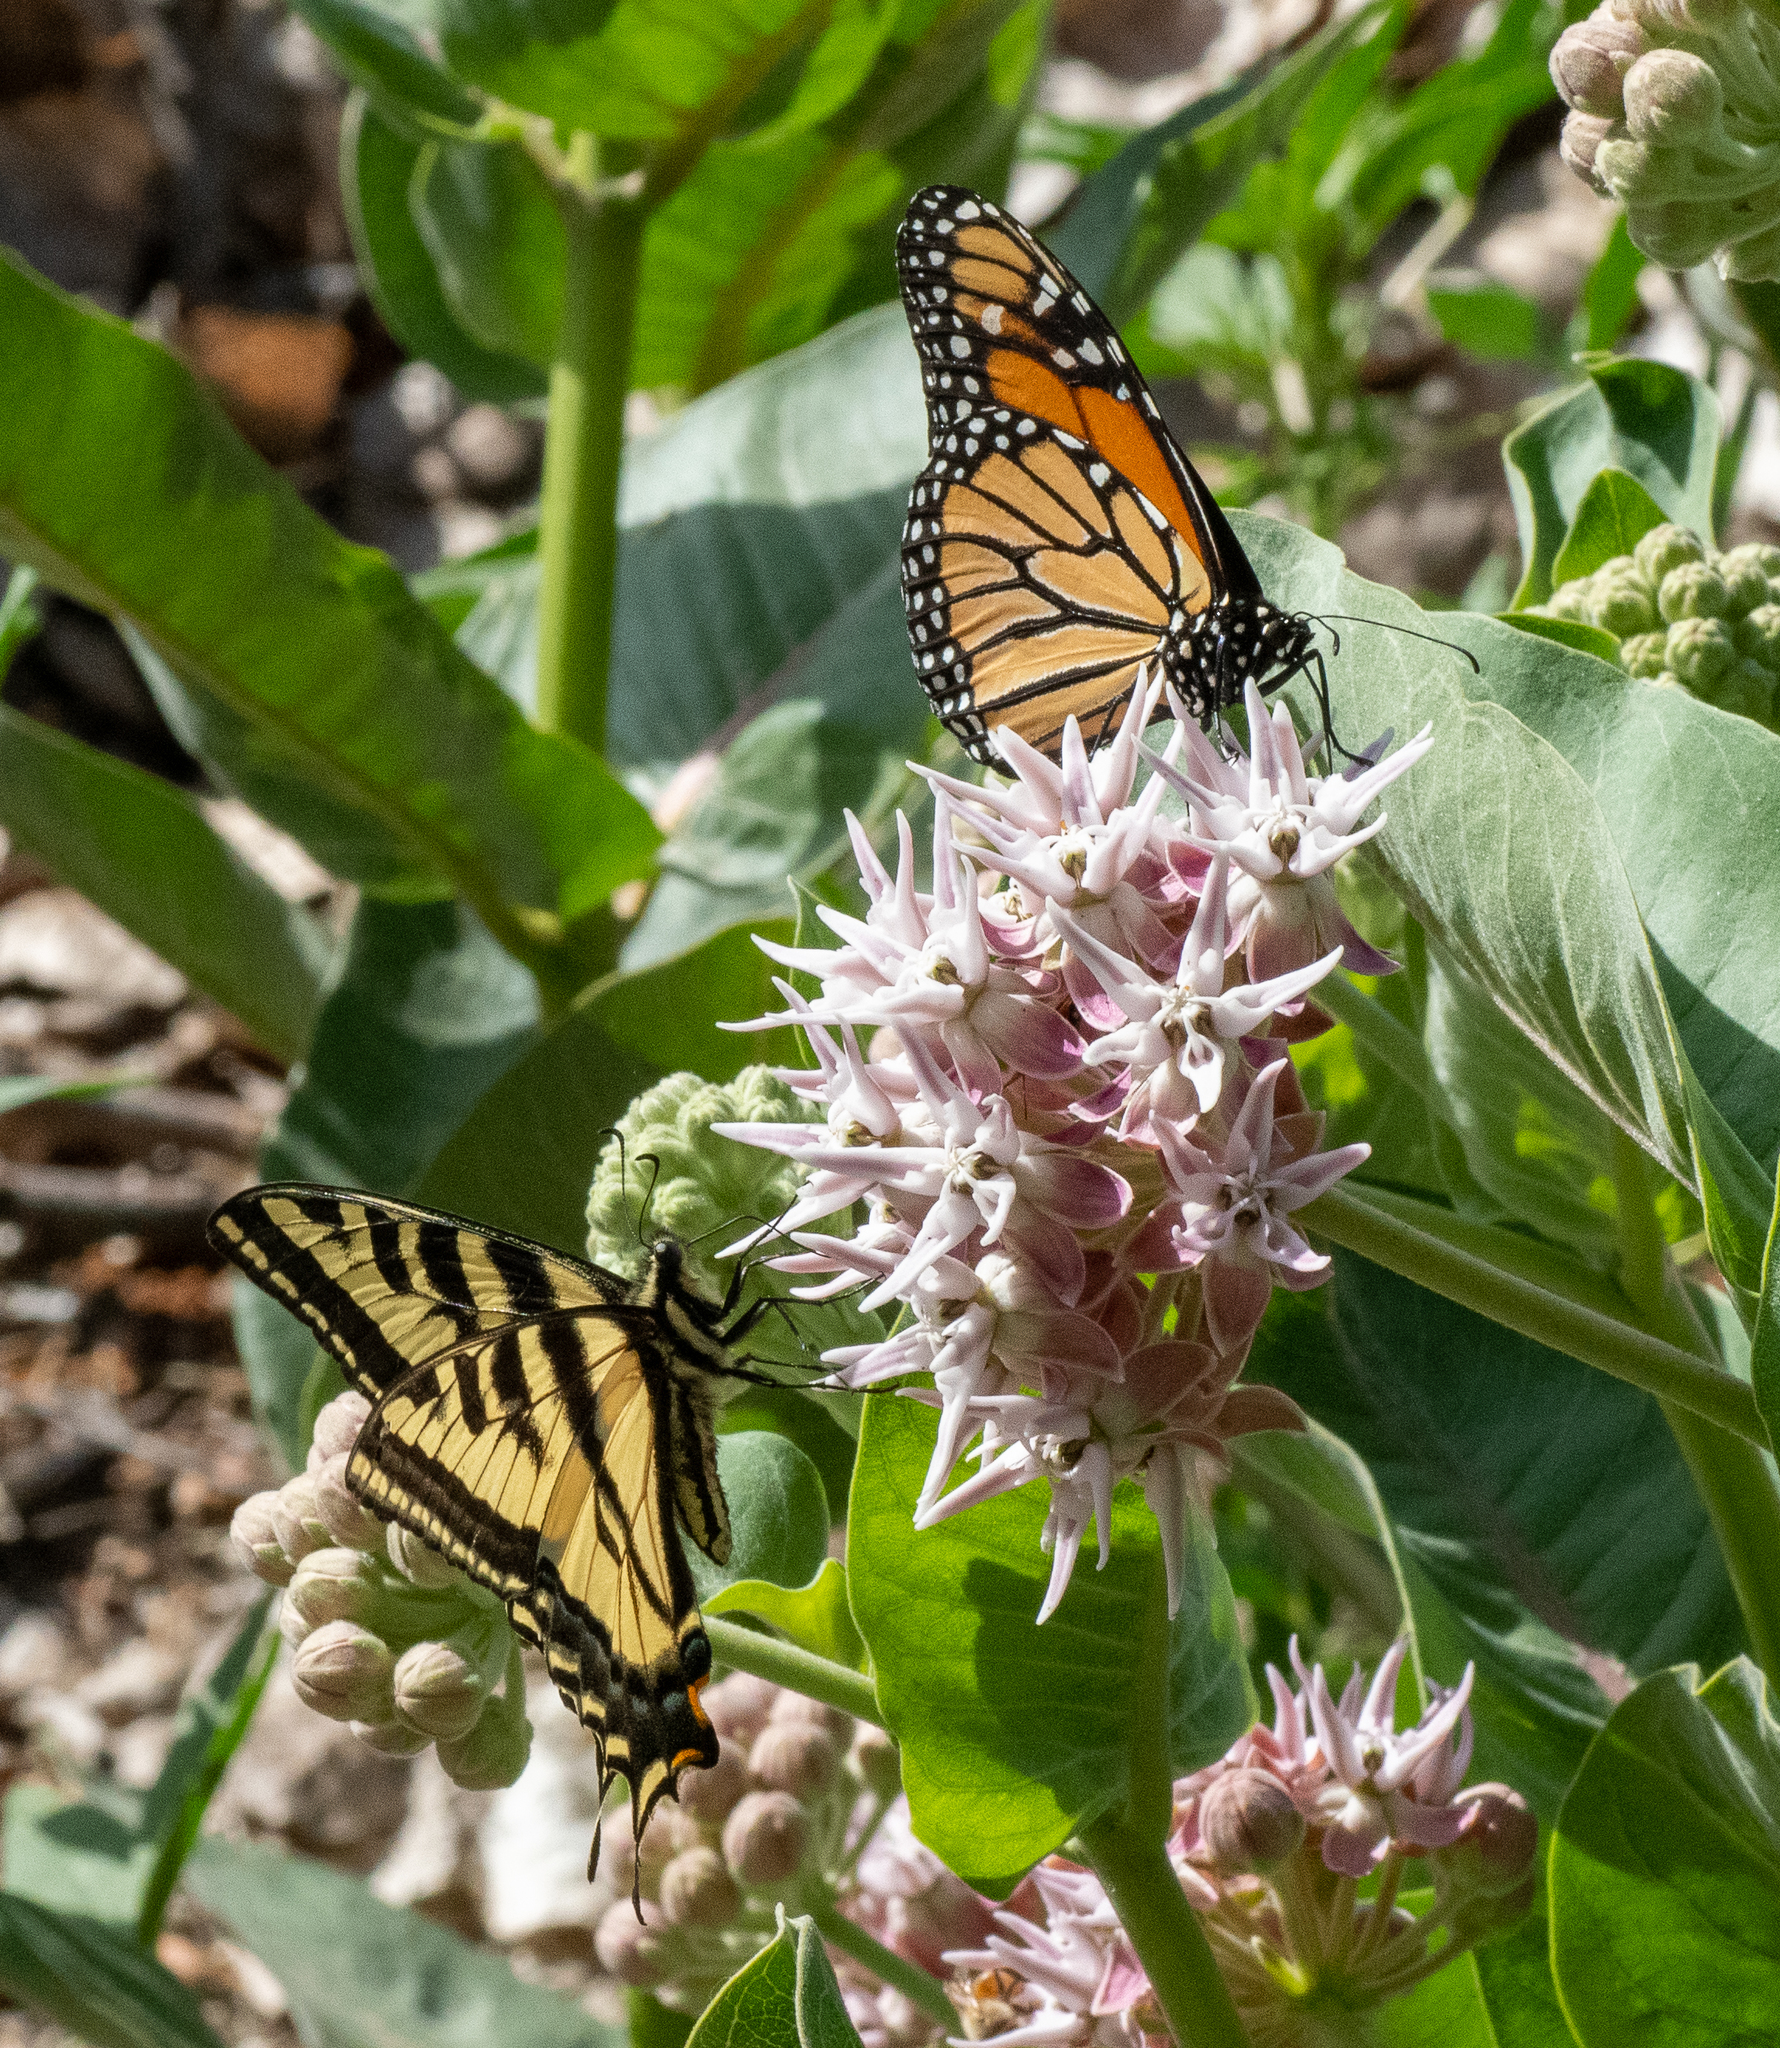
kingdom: Animalia
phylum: Arthropoda
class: Insecta
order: Lepidoptera
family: Nymphalidae
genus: Danaus
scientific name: Danaus plexippus
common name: Monarch
